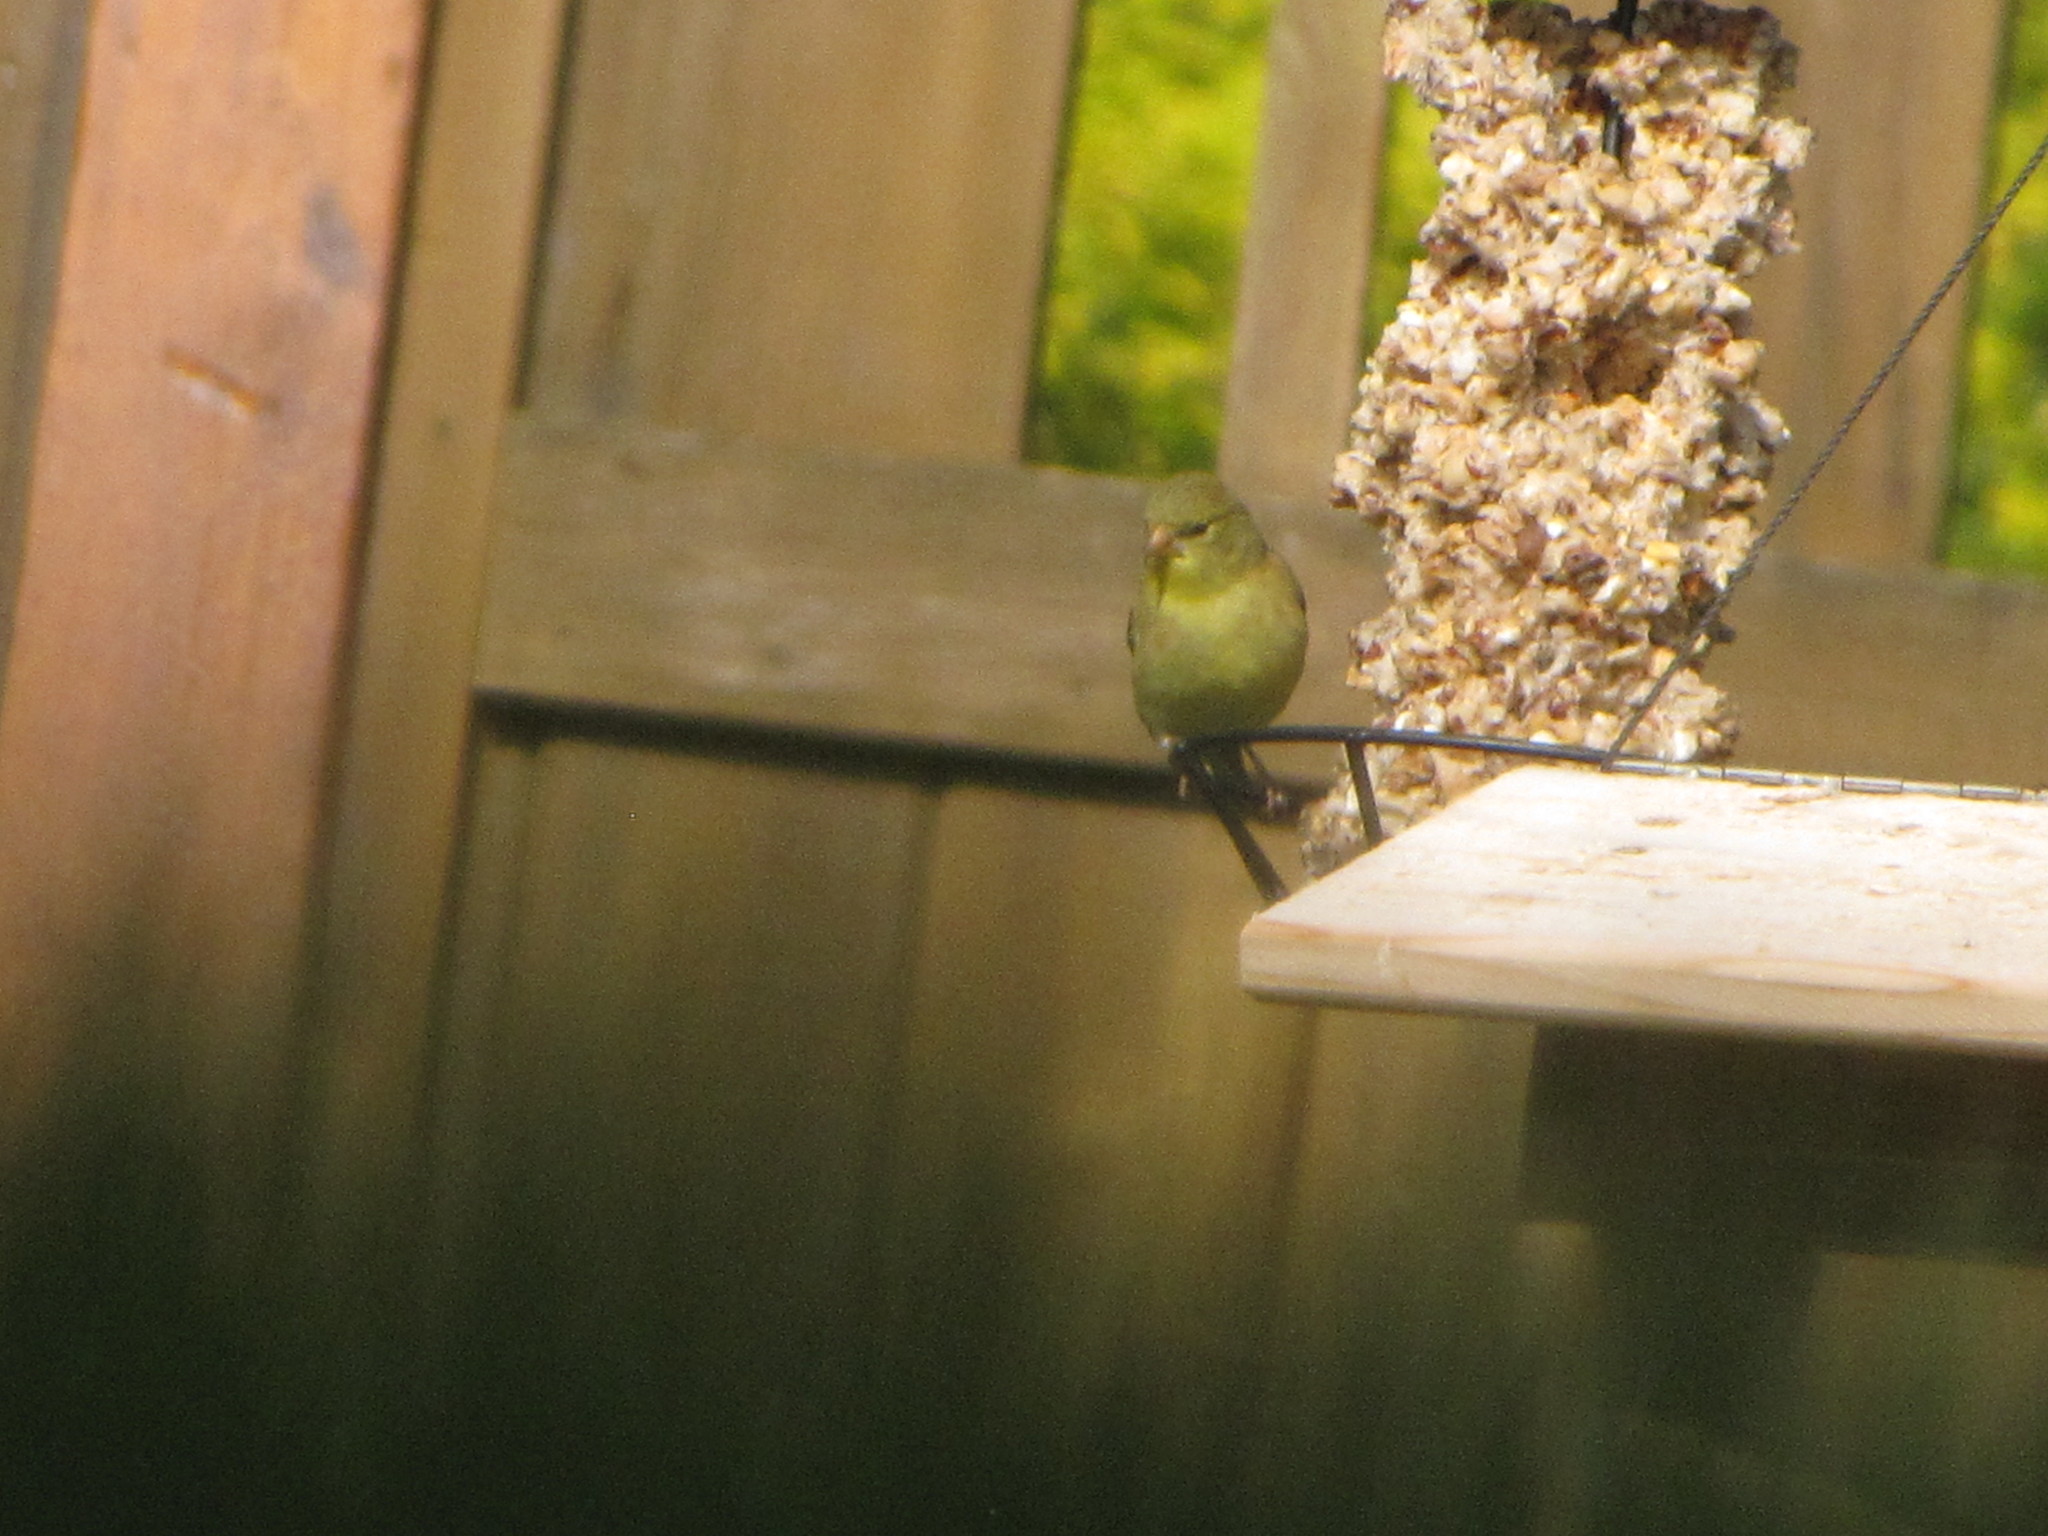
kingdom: Animalia
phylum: Chordata
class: Aves
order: Passeriformes
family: Fringillidae
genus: Spinus
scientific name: Spinus tristis
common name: American goldfinch
